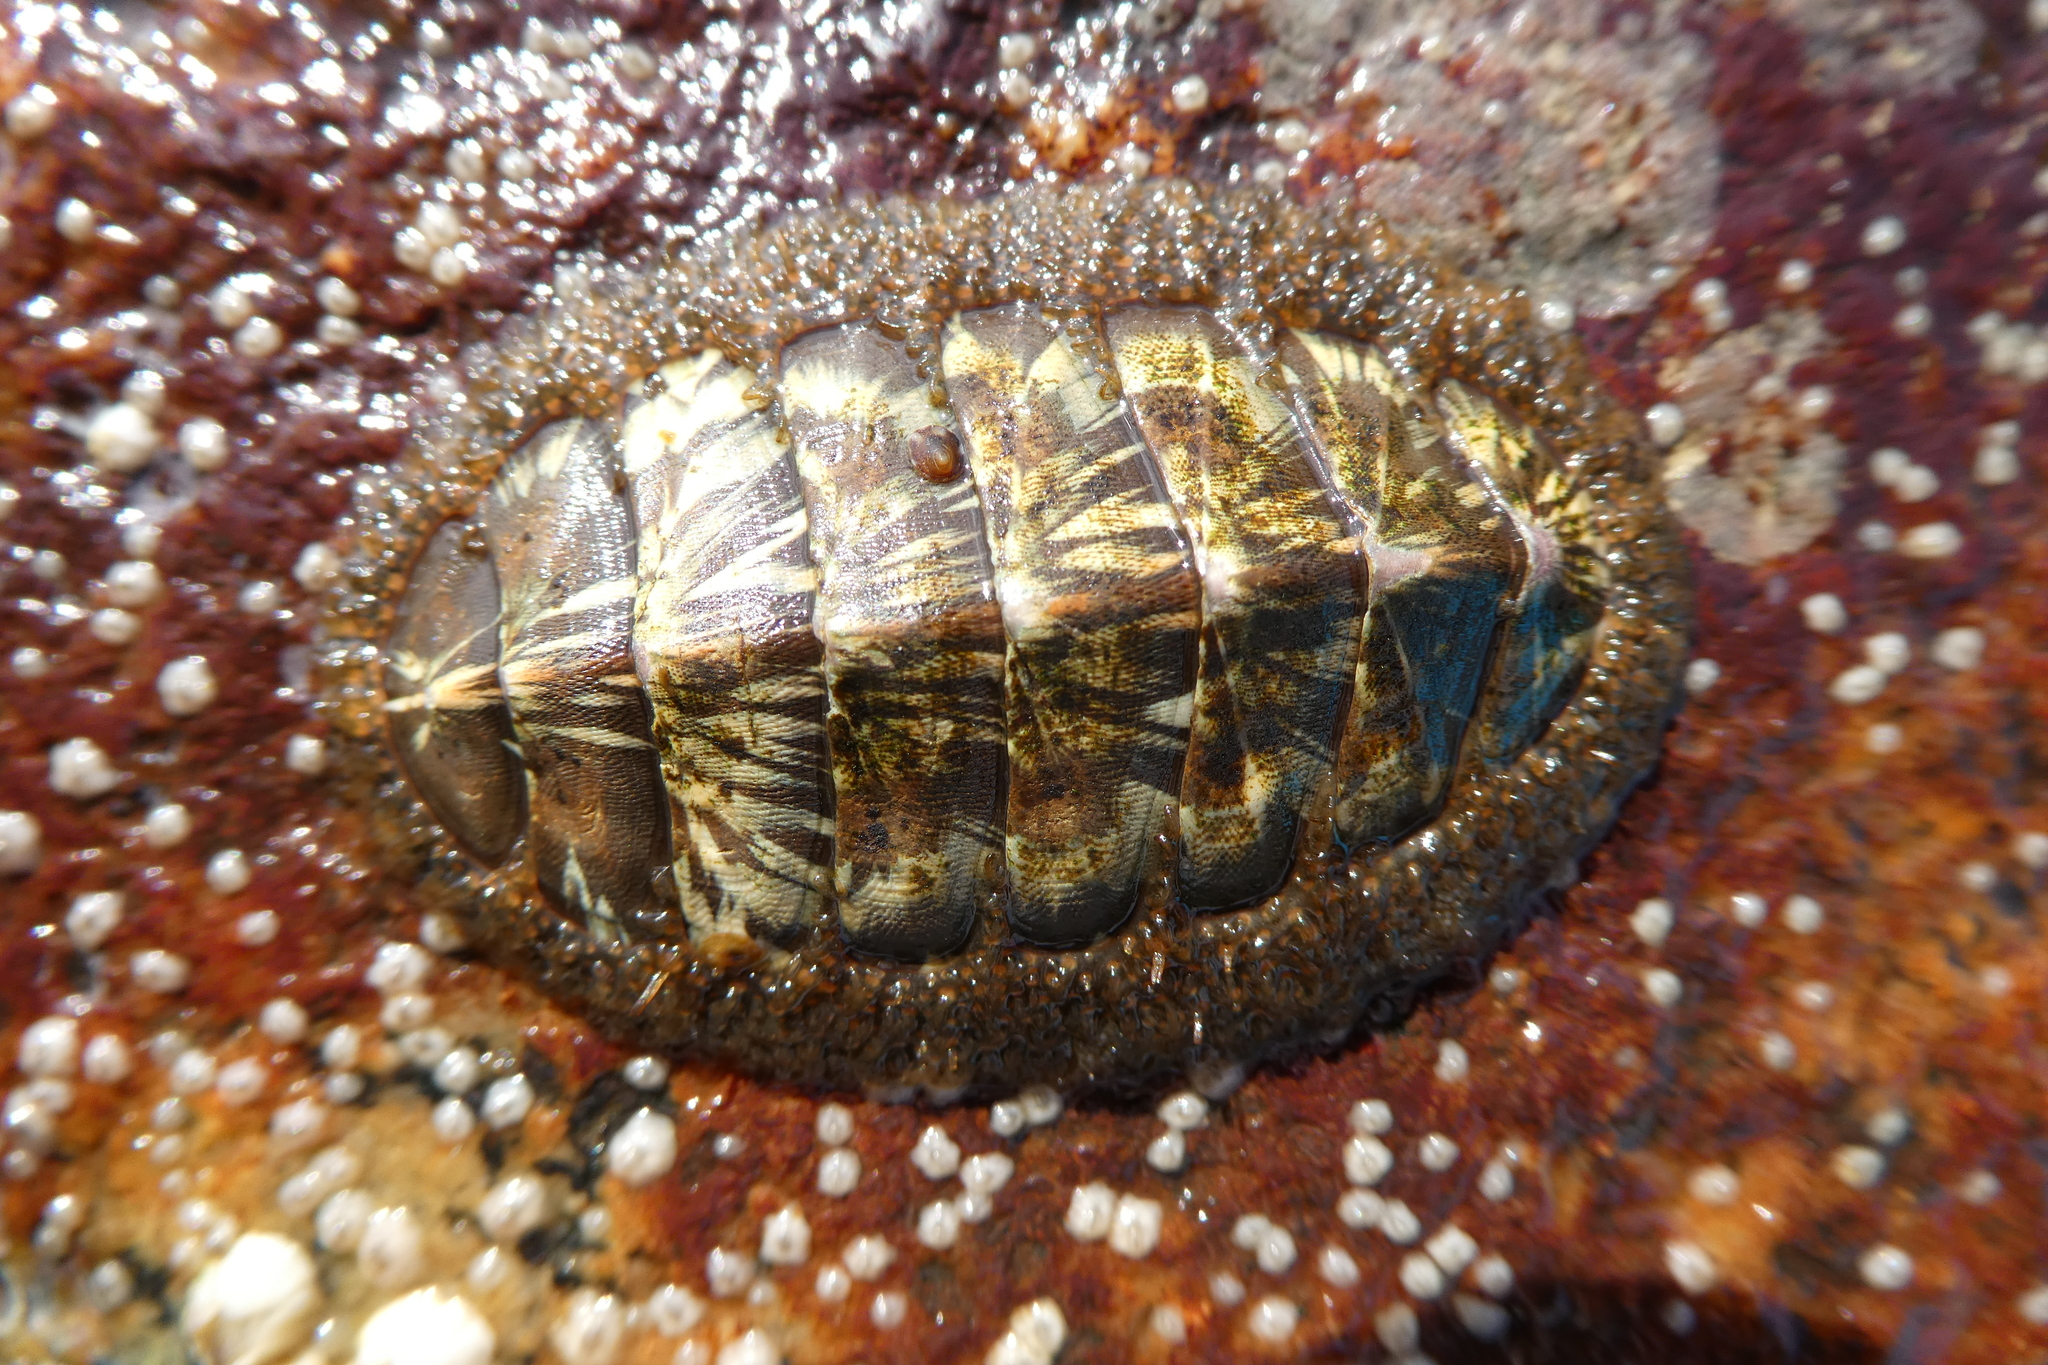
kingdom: Animalia
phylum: Mollusca
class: Polyplacophora
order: Chitonida
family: Mopaliidae
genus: Mopalia
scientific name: Mopalia lignosa
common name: Woody chiton
